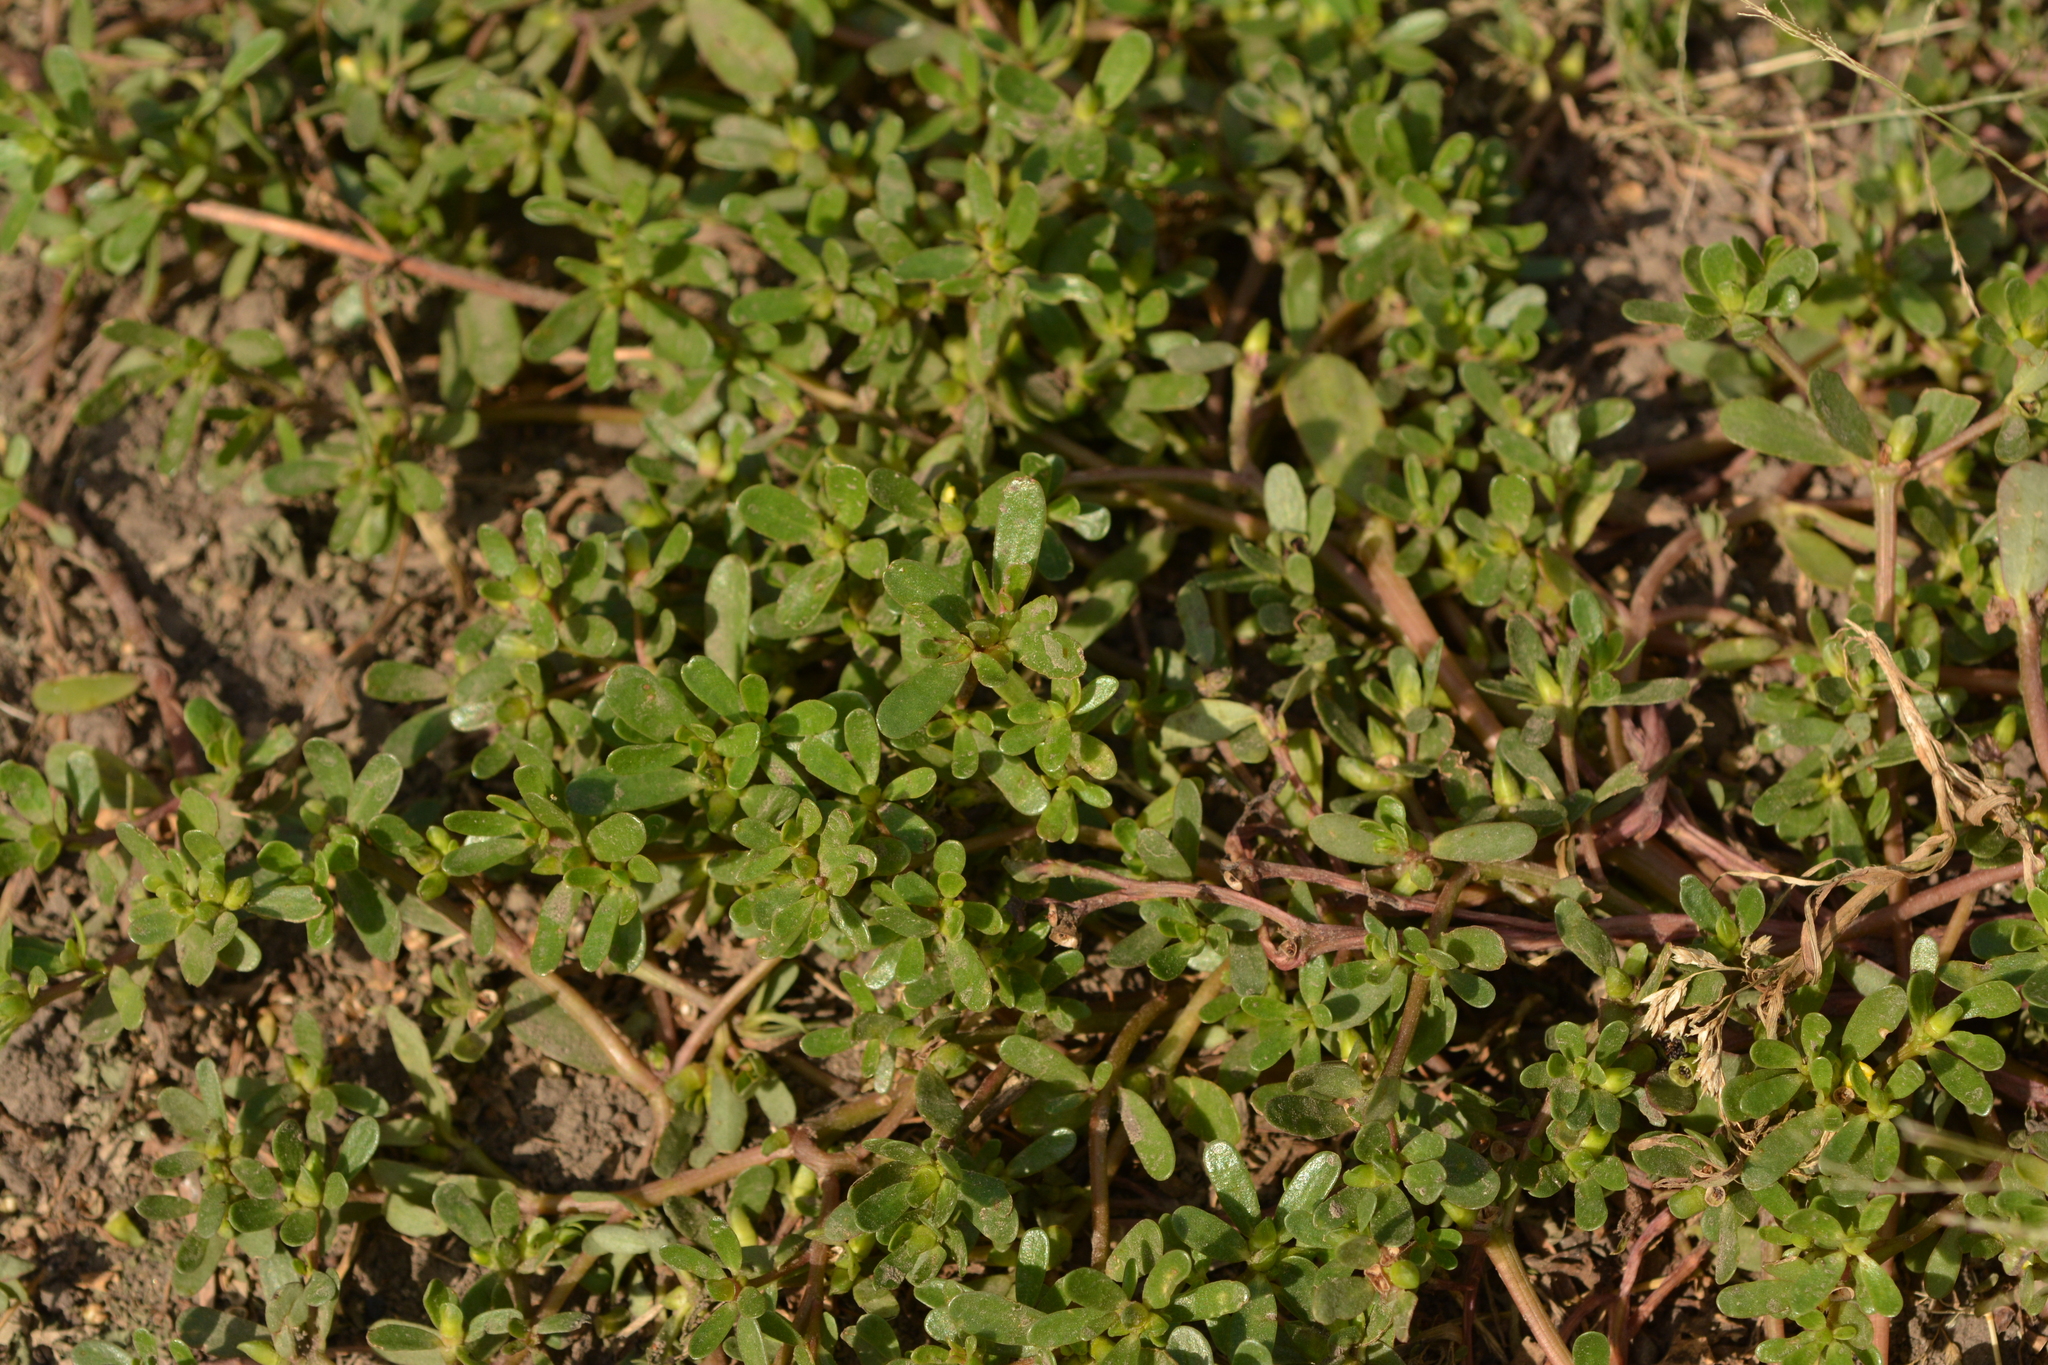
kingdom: Plantae
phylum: Tracheophyta
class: Magnoliopsida
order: Caryophyllales
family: Portulacaceae
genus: Portulaca
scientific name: Portulaca oleracea
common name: Common purslane
